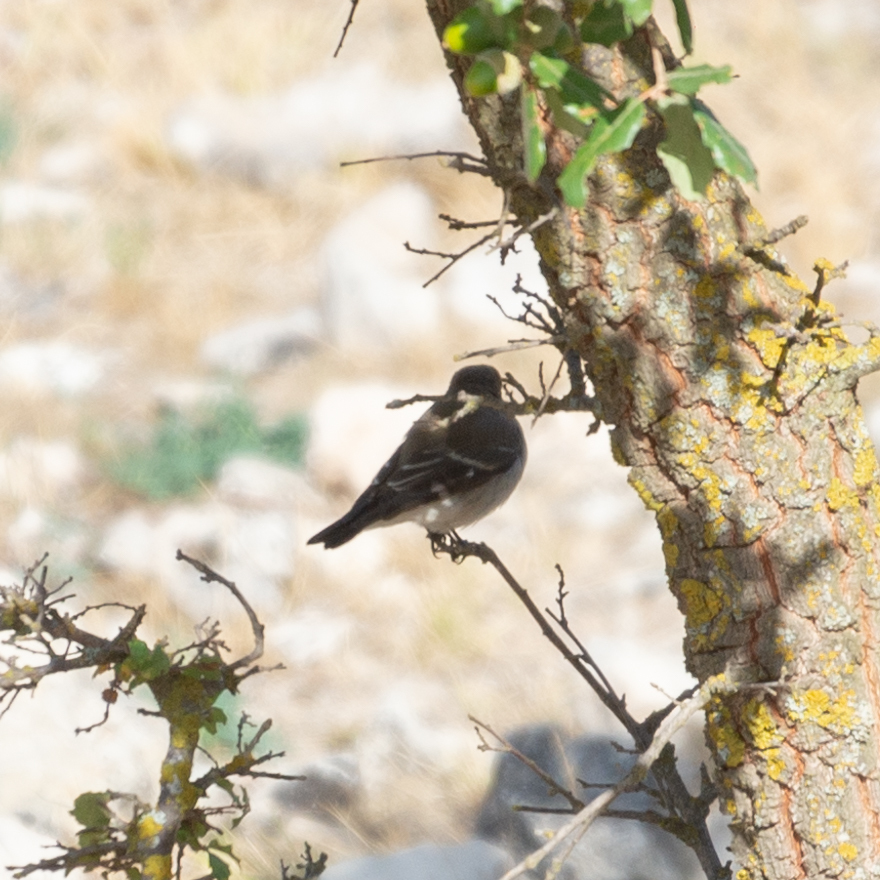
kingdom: Animalia
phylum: Chordata
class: Aves
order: Passeriformes
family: Muscicapidae
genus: Ficedula
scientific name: Ficedula hypoleuca
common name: European pied flycatcher
